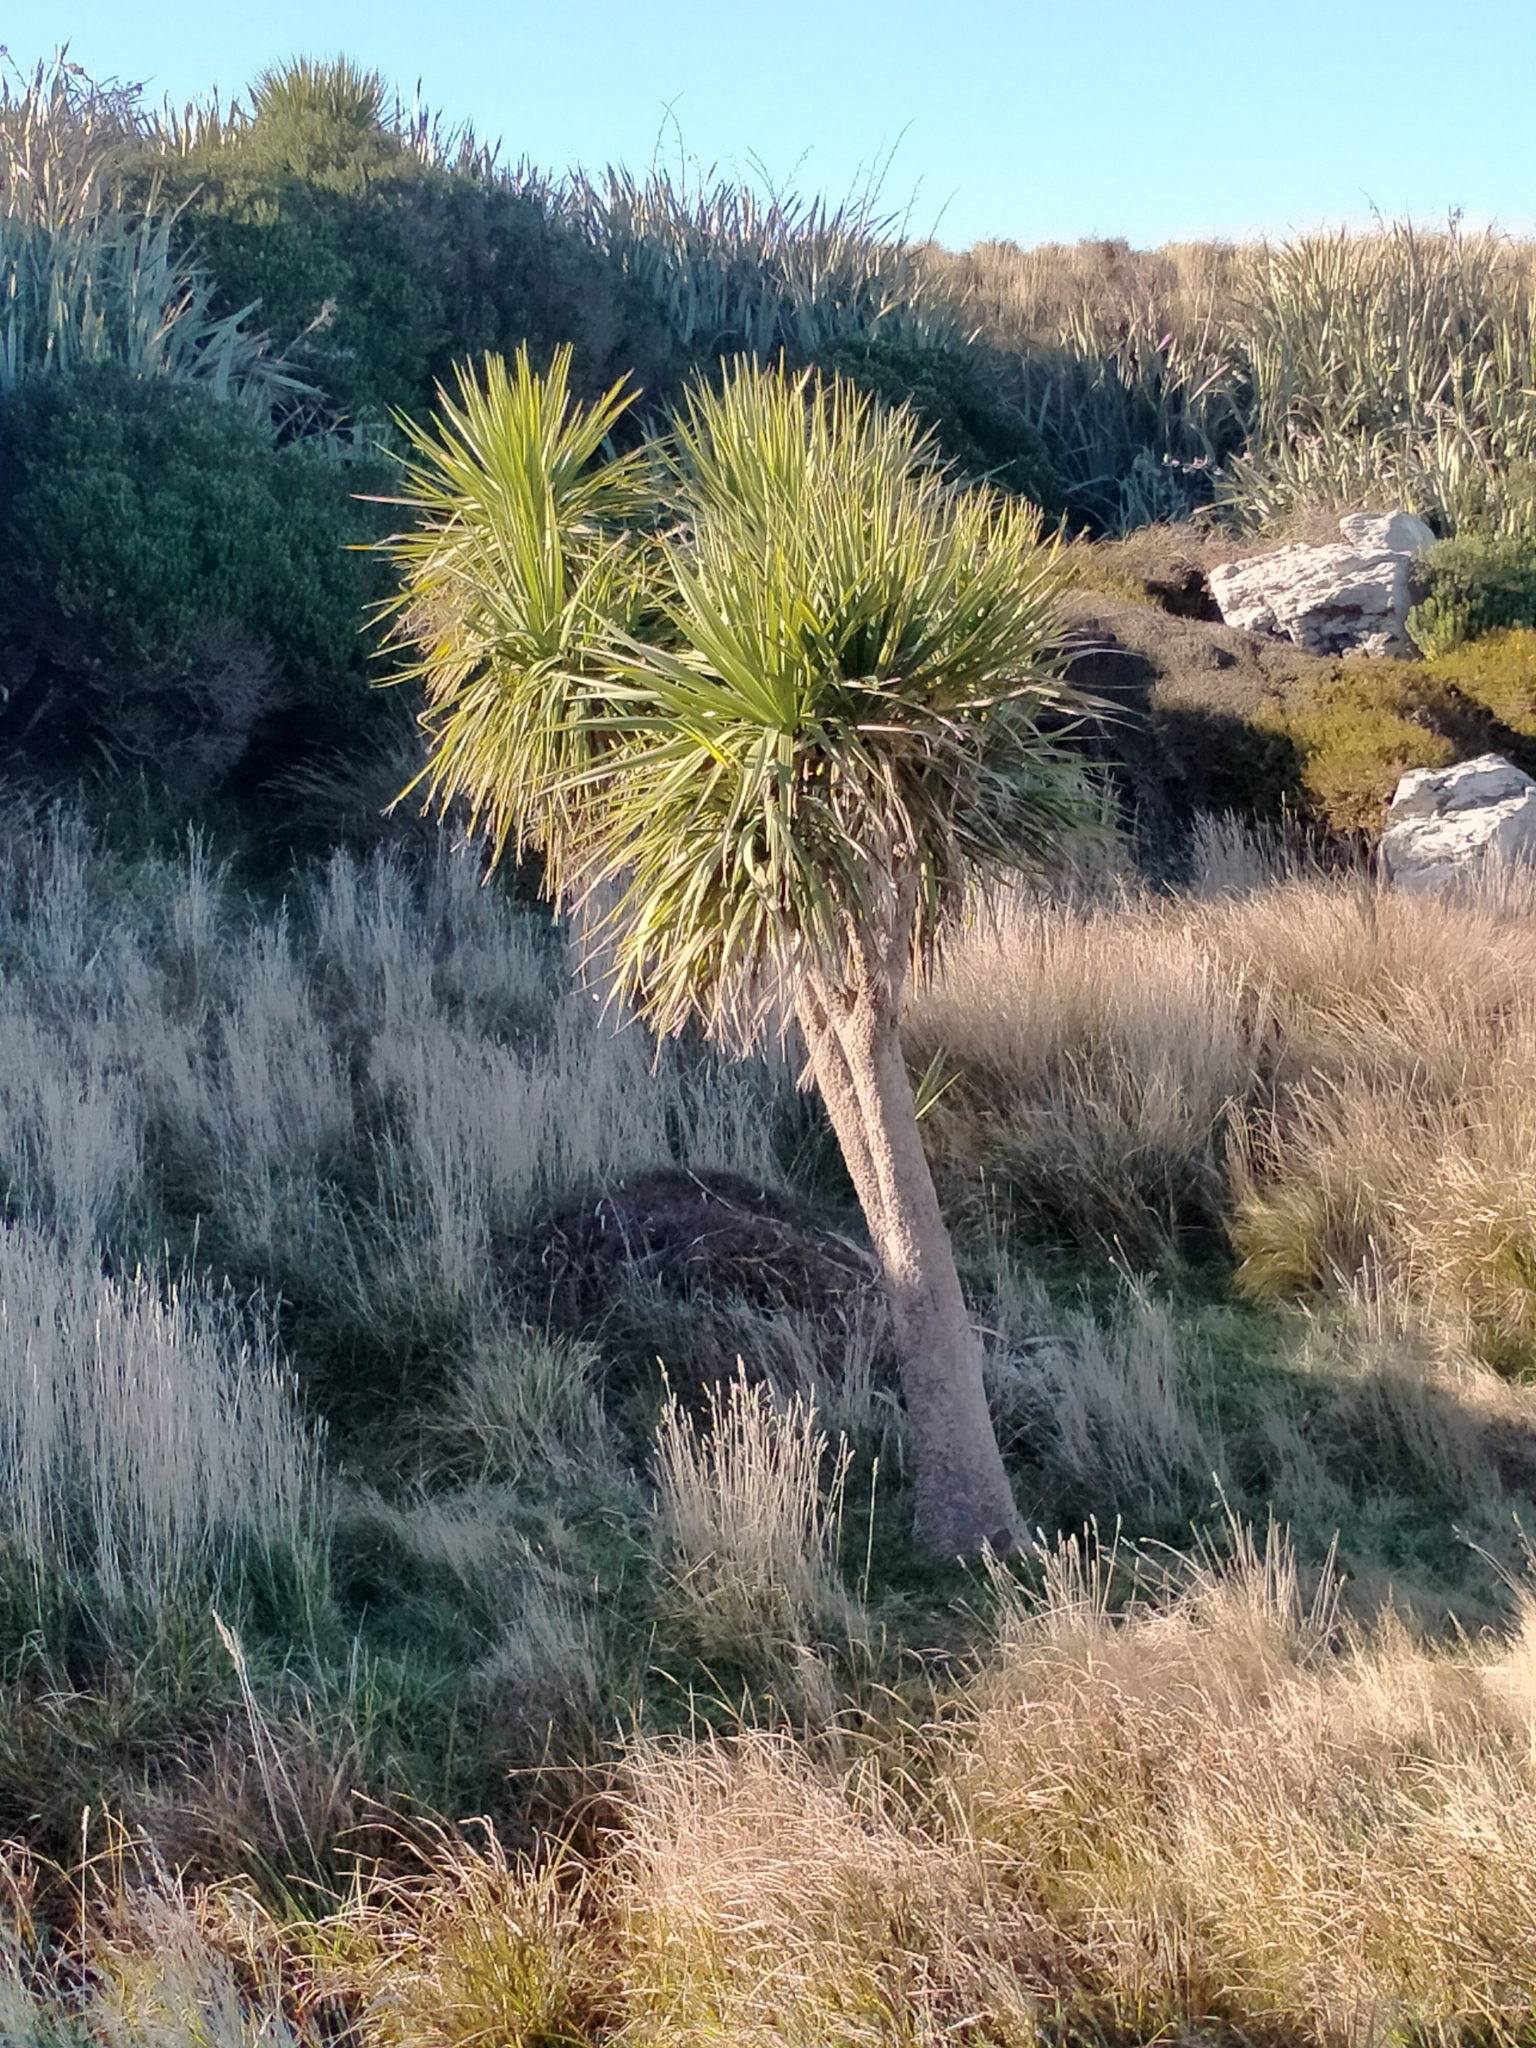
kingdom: Plantae
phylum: Tracheophyta
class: Liliopsida
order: Asparagales
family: Asparagaceae
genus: Cordyline
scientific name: Cordyline australis
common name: Cabbage-palm
